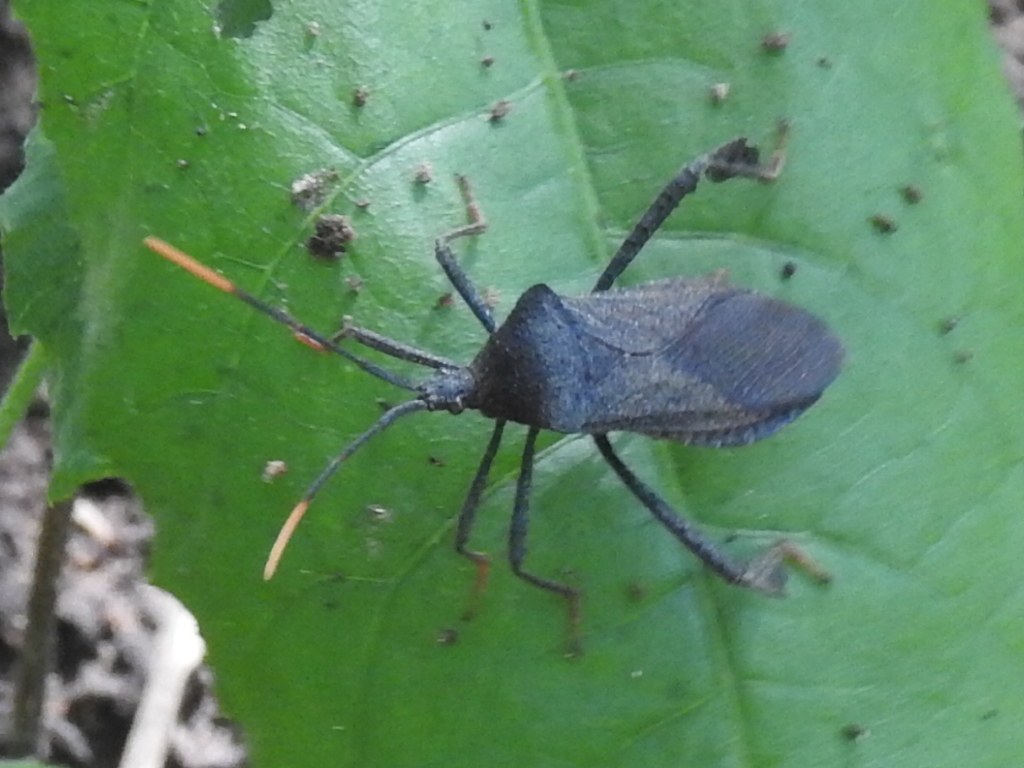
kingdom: Animalia
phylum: Arthropoda
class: Insecta
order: Hemiptera
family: Coreidae
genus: Acanthocephala
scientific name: Acanthocephala terminalis
